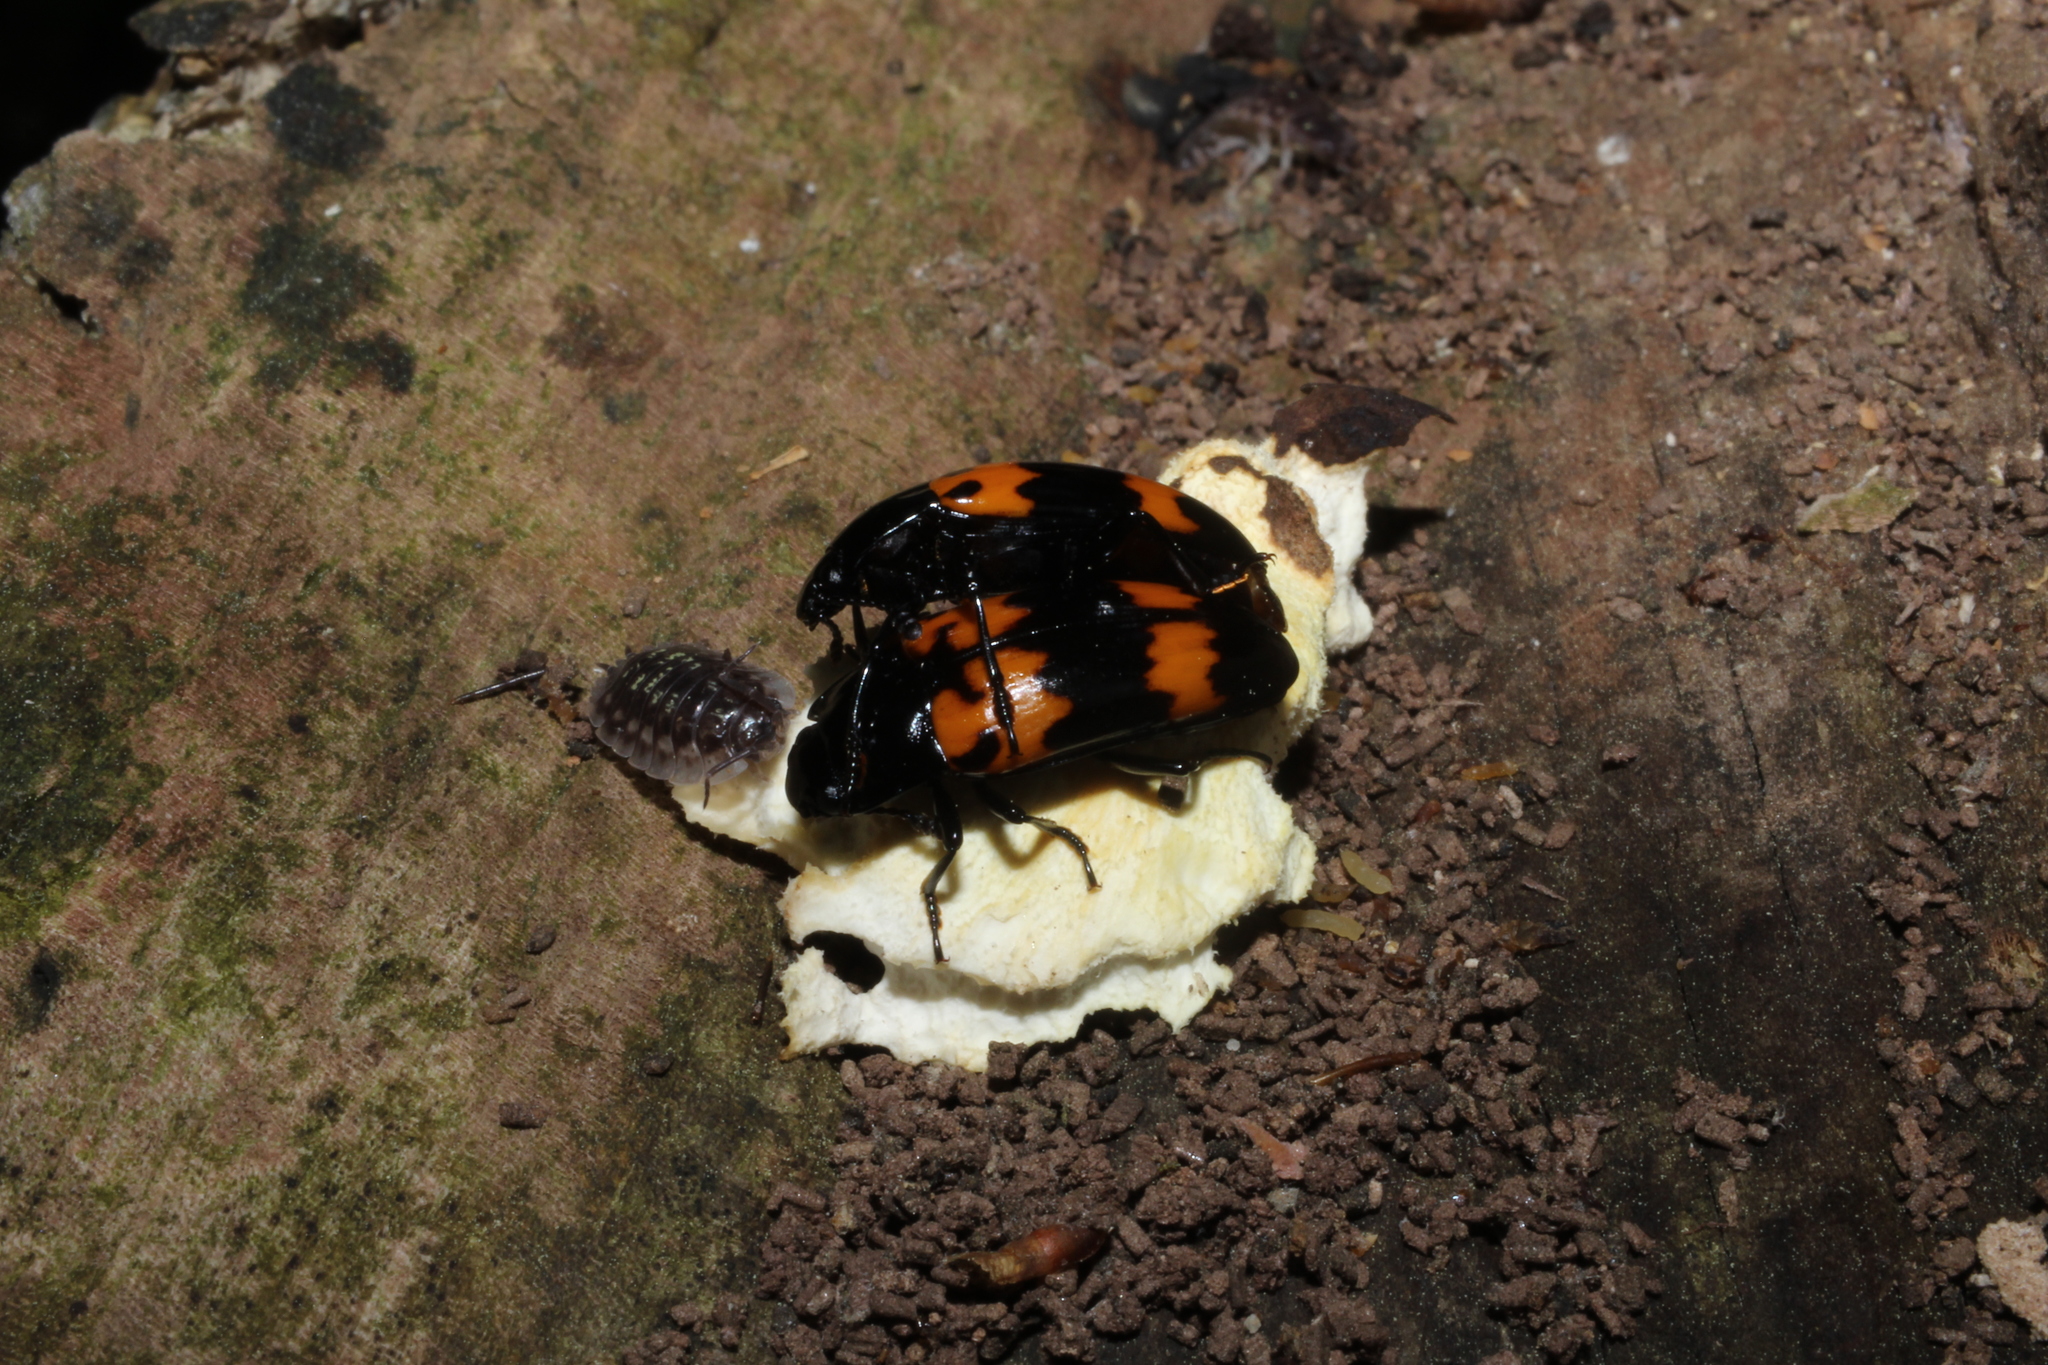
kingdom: Animalia
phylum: Arthropoda
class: Insecta
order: Coleoptera
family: Erotylidae
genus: Megalodacne
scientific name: Megalodacne heros
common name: Pleasing fungus beetle
